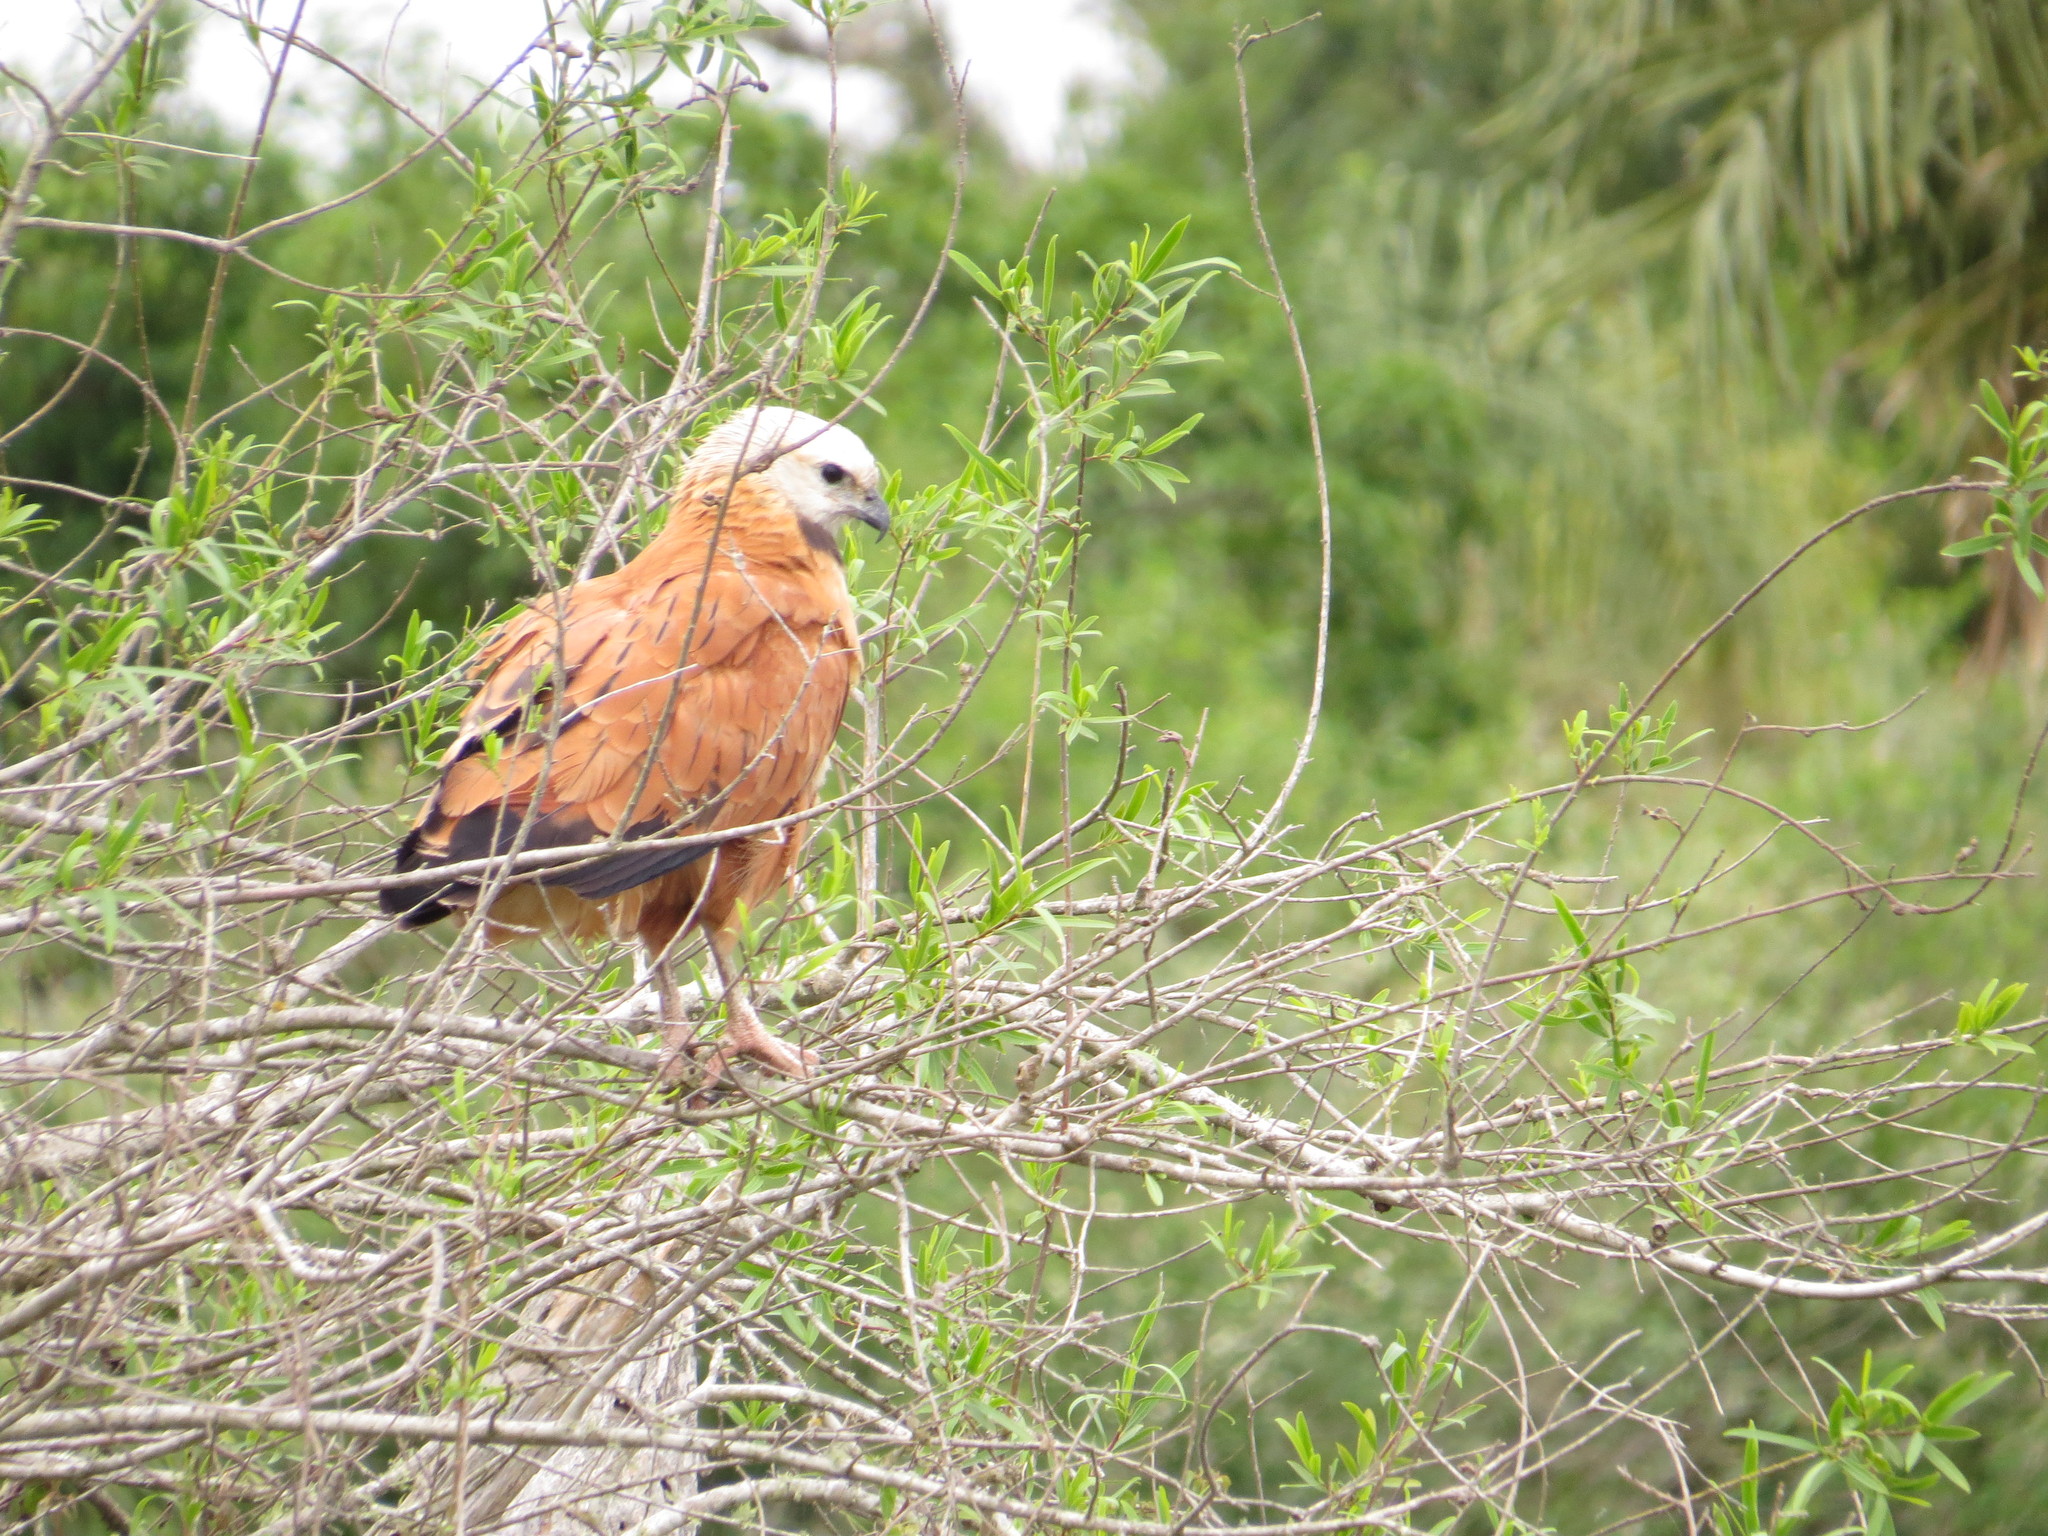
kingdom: Animalia
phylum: Chordata
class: Aves
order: Accipitriformes
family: Accipitridae
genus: Busarellus
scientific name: Busarellus nigricollis
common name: Black-collared hawk
